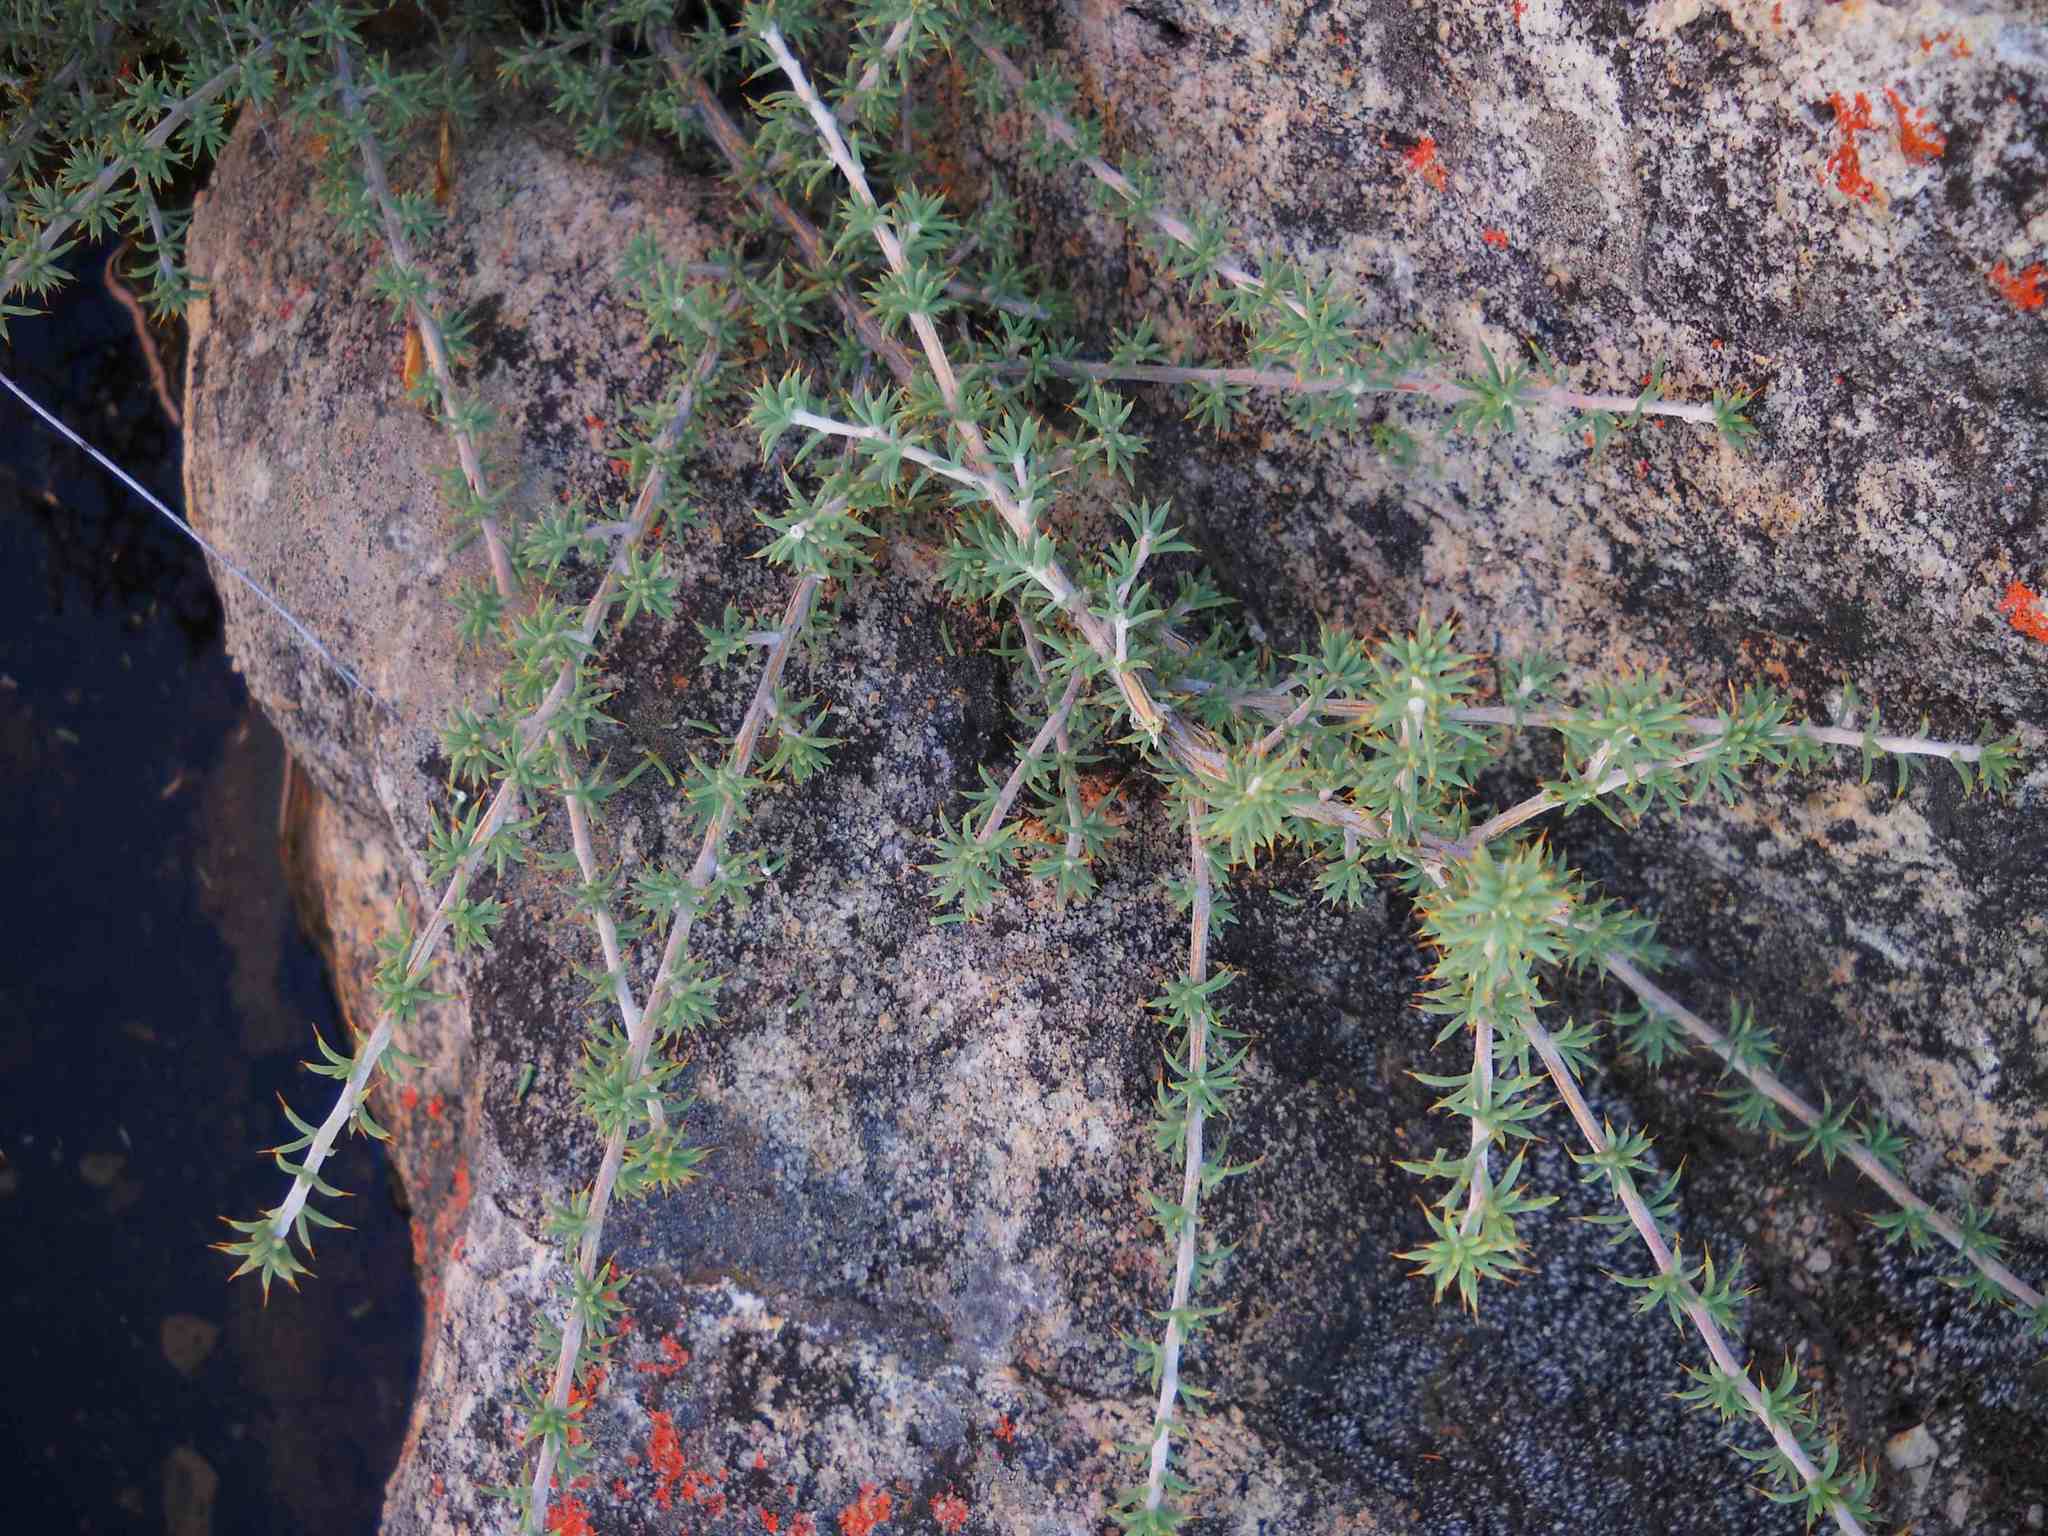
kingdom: Plantae
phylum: Tracheophyta
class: Magnoliopsida
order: Fabales
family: Fabaceae
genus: Aspalathus
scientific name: Aspalathus collina
